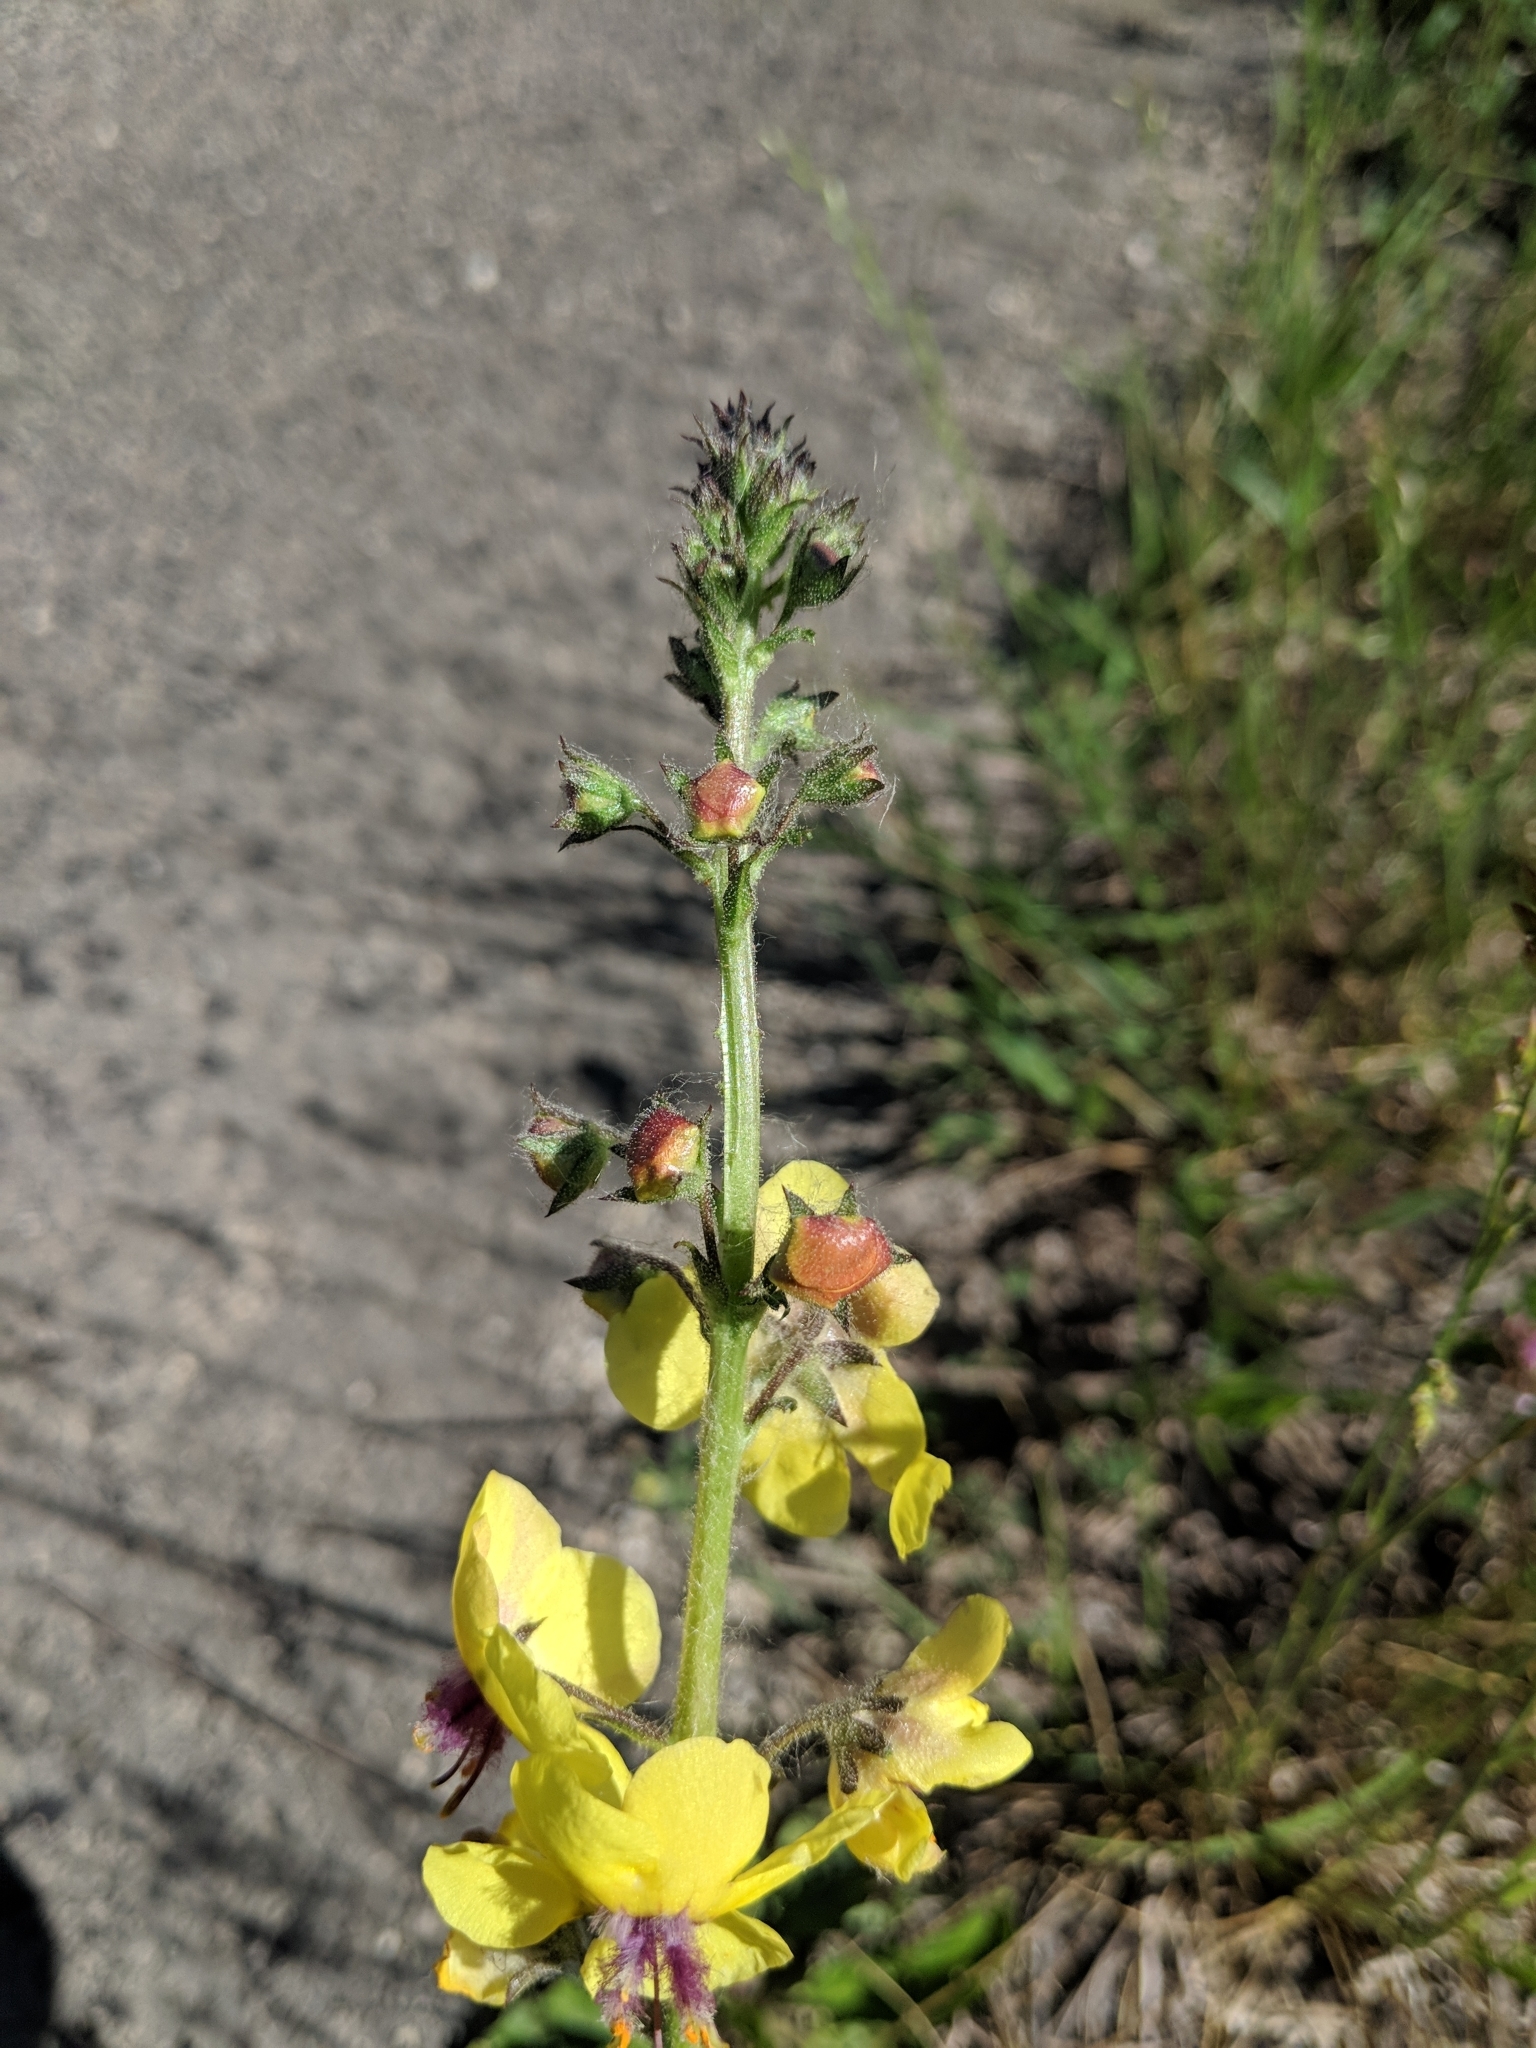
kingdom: Plantae
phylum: Tracheophyta
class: Magnoliopsida
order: Lamiales
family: Scrophulariaceae
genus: Verbascum
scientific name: Verbascum blattaria
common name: Moth mullein
